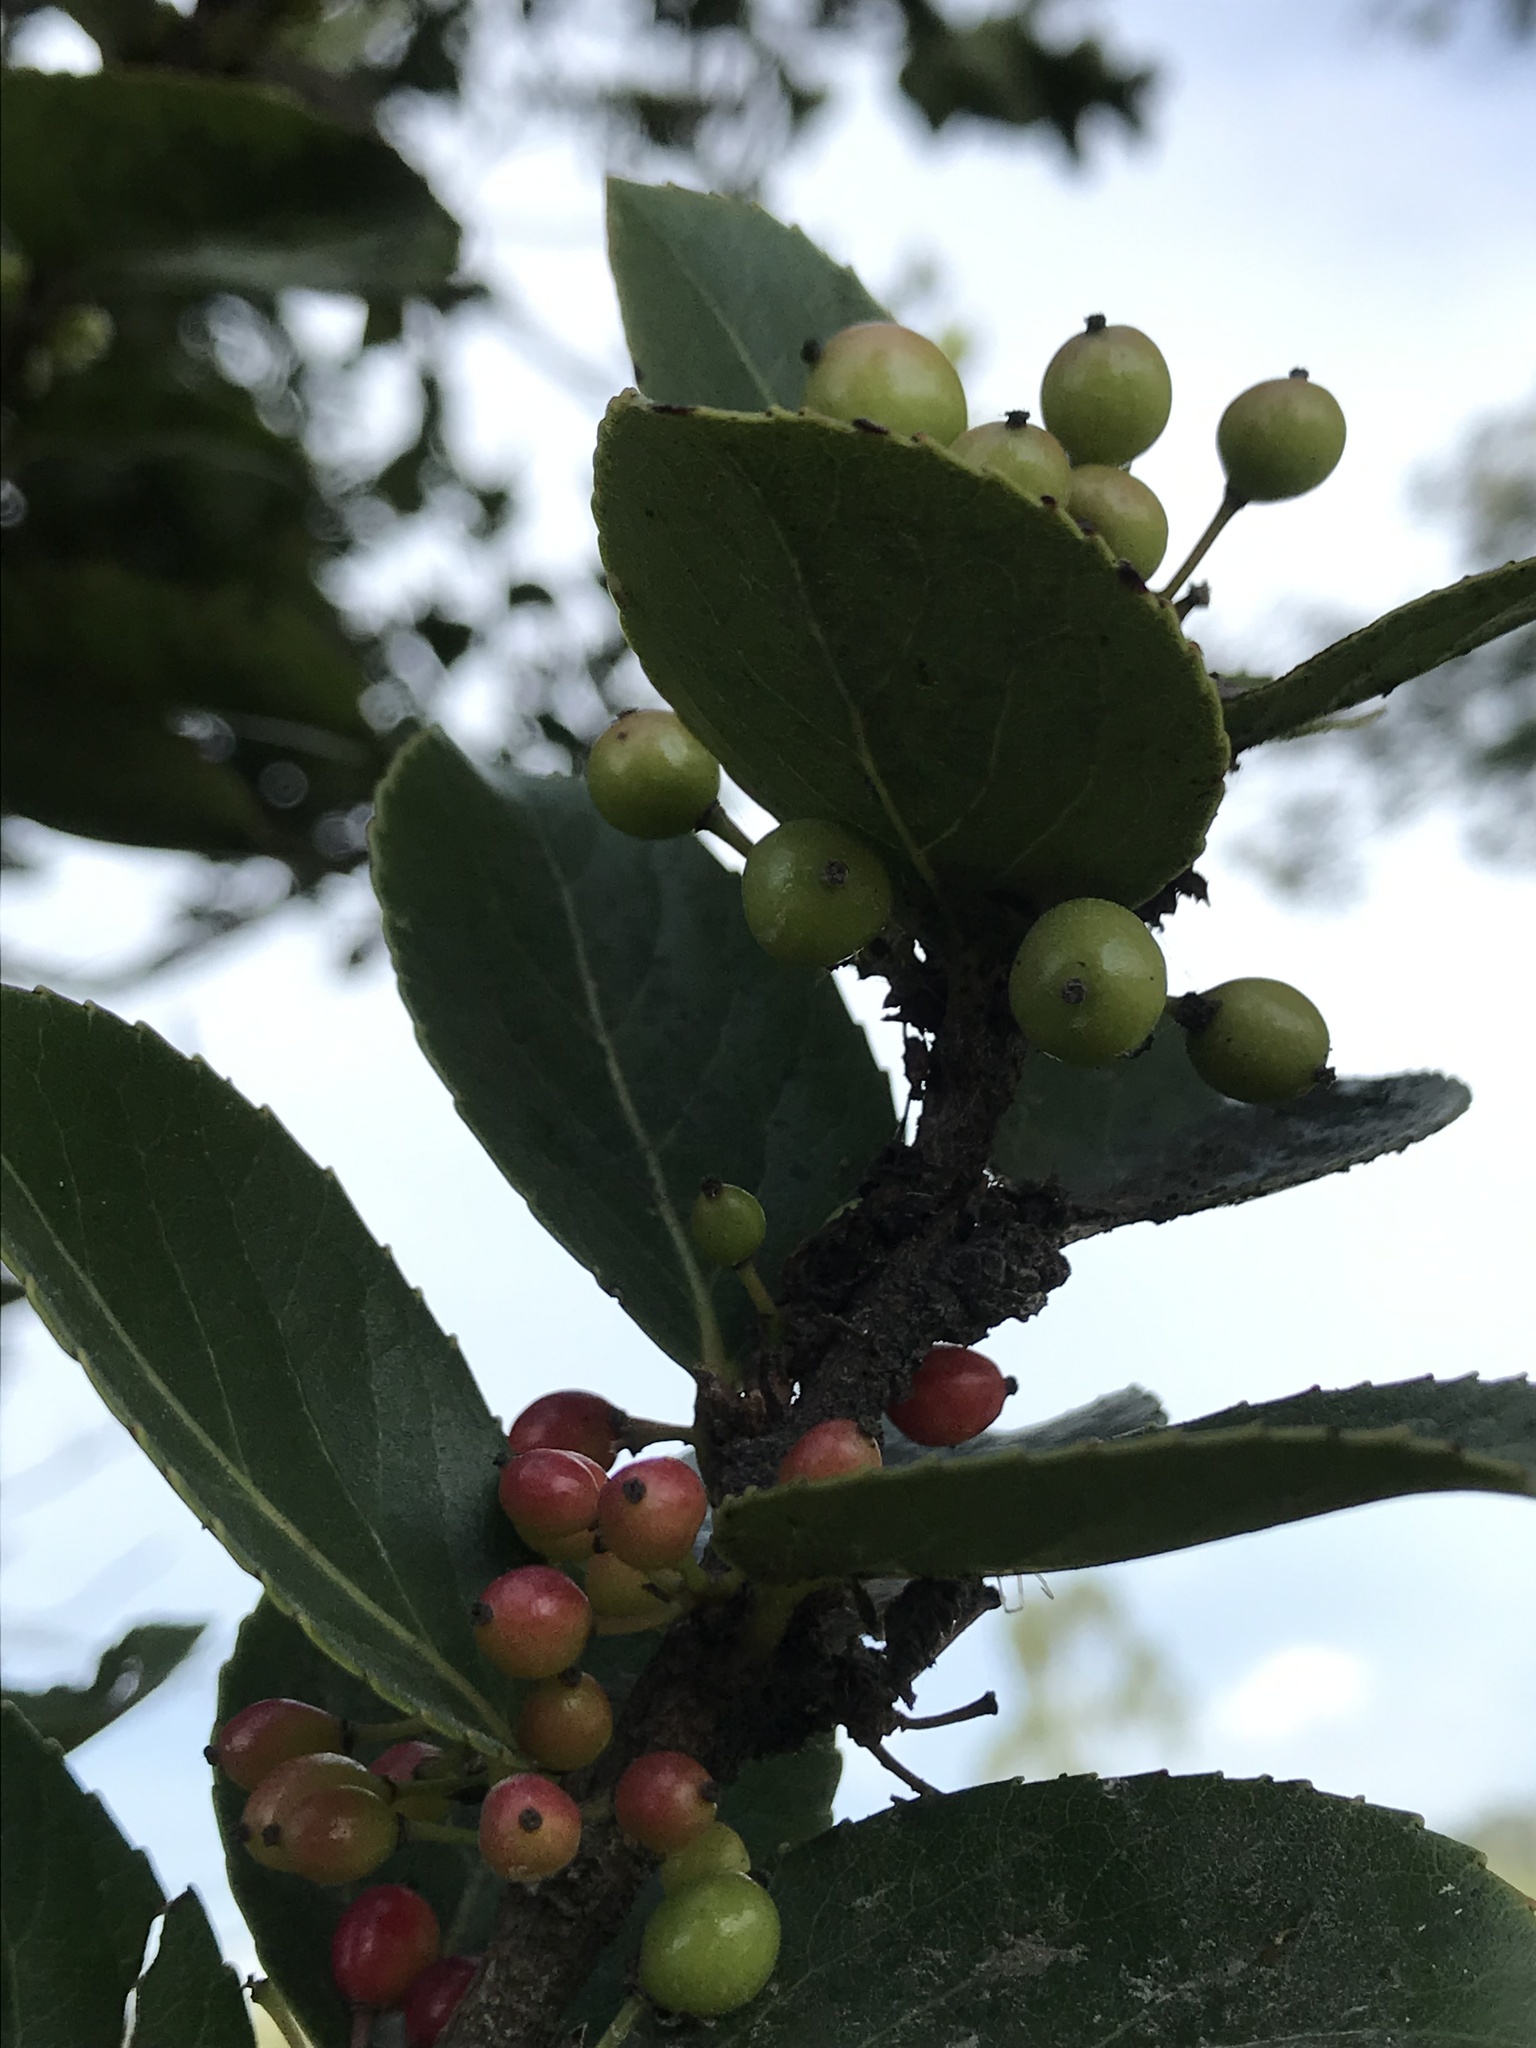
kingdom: Plantae
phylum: Tracheophyta
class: Magnoliopsida
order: Malpighiales
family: Salicaceae
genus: Xylosma
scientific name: Xylosma spiculifera
